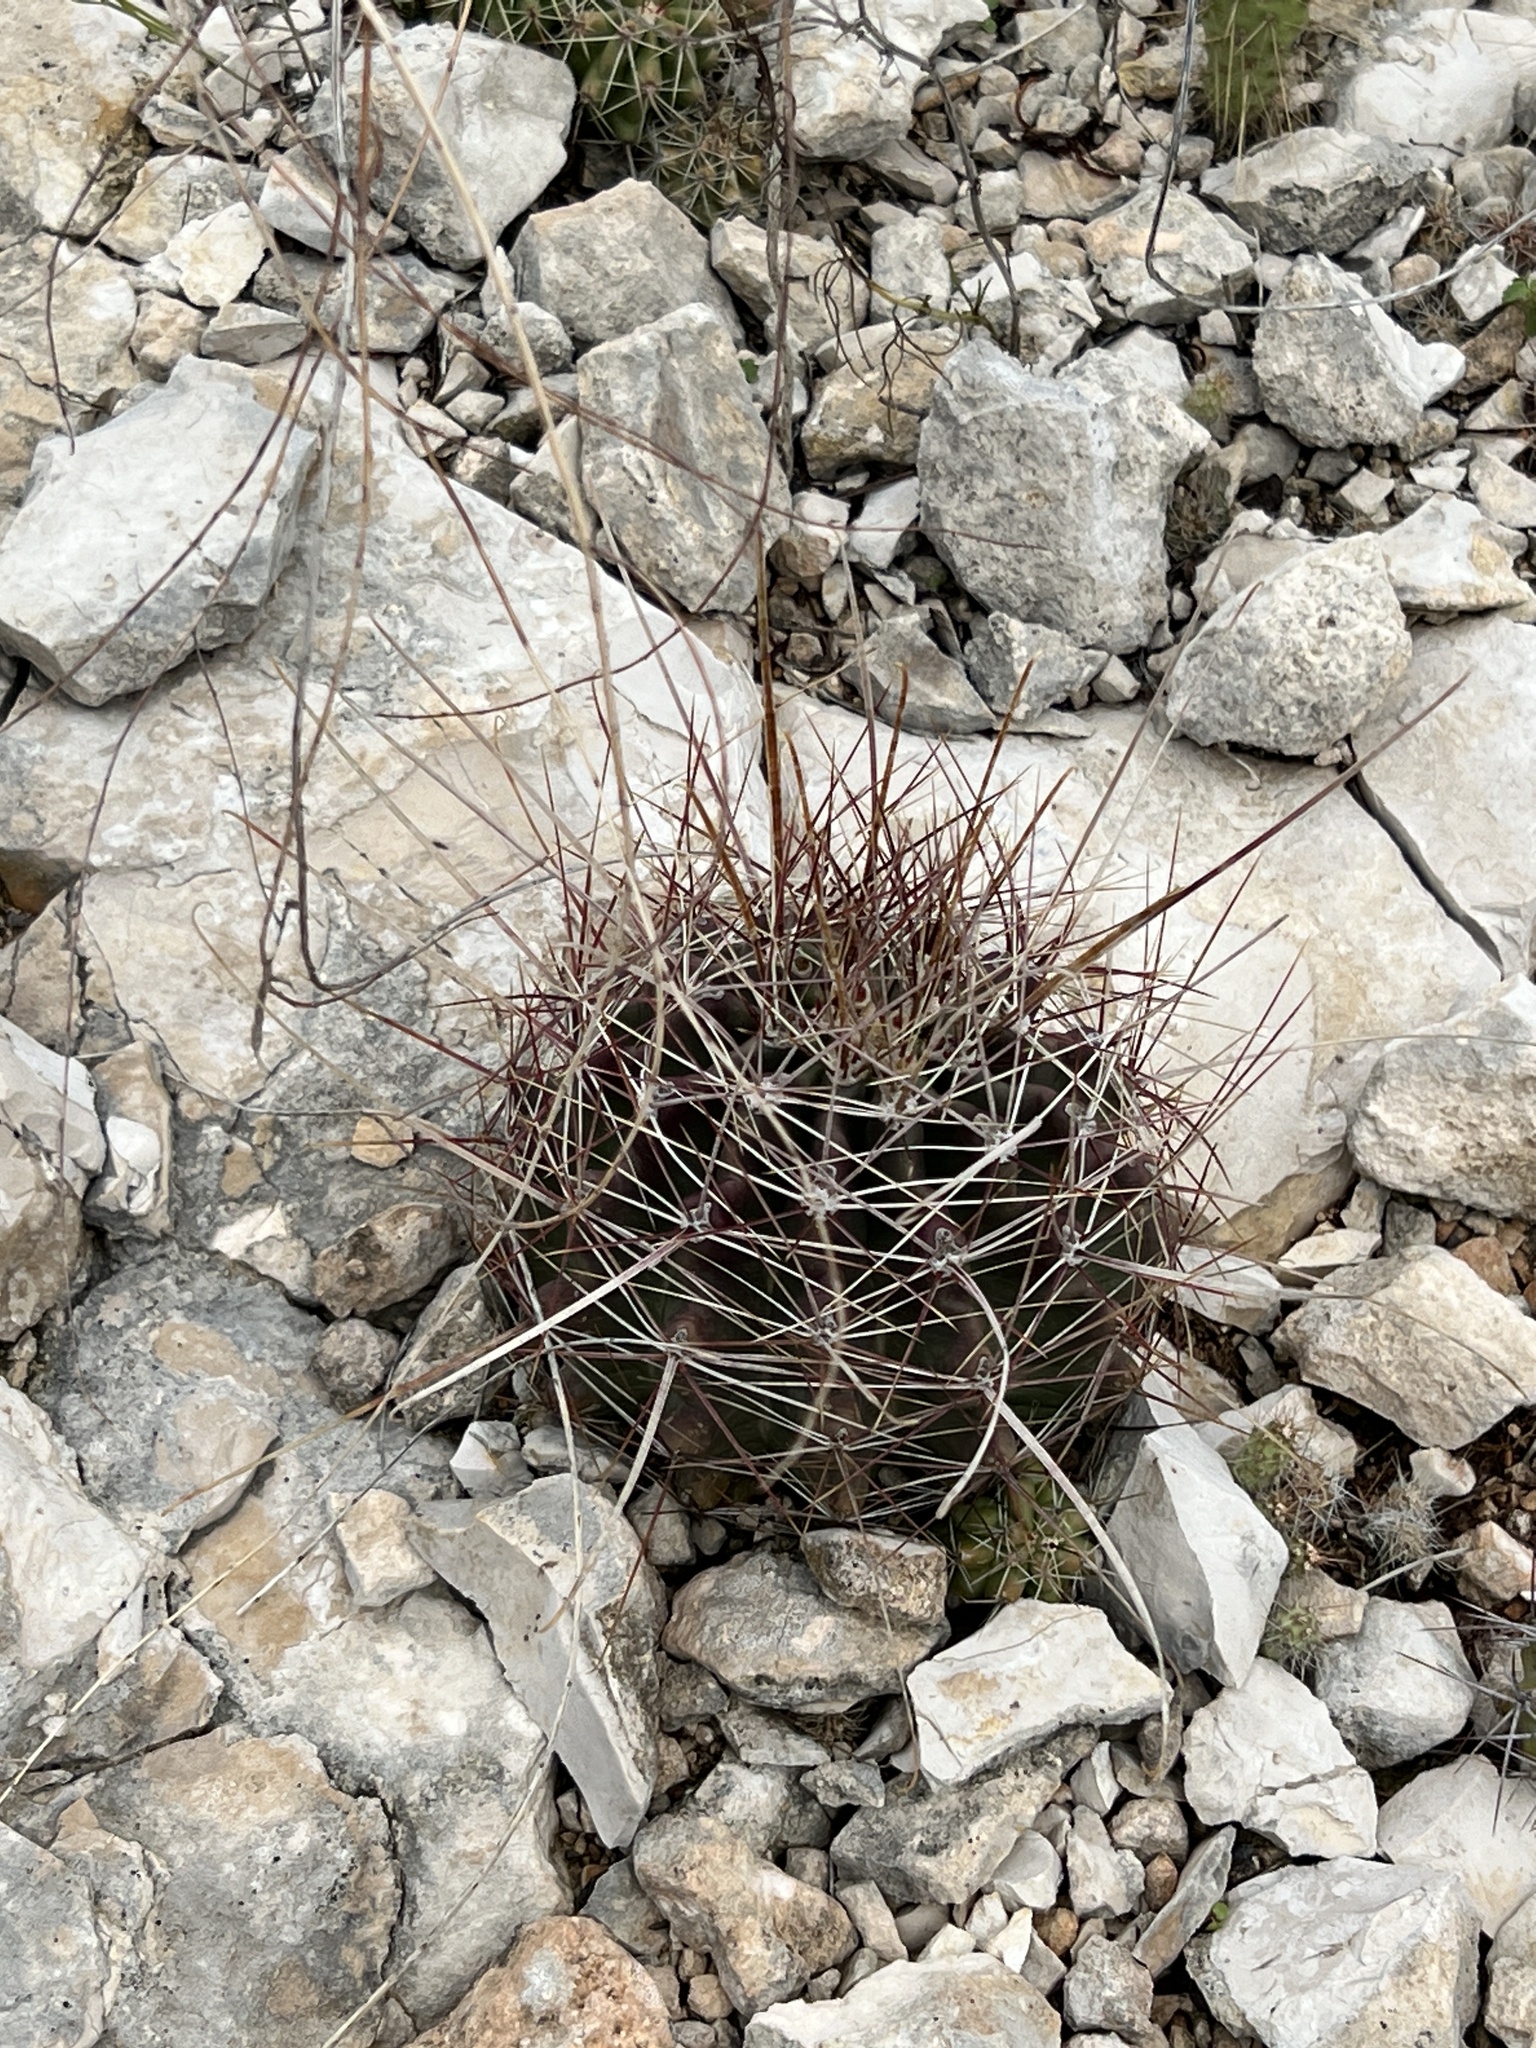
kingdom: Plantae
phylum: Tracheophyta
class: Magnoliopsida
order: Caryophyllales
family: Cactaceae
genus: Bisnaga
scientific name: Bisnaga hamatacantha
